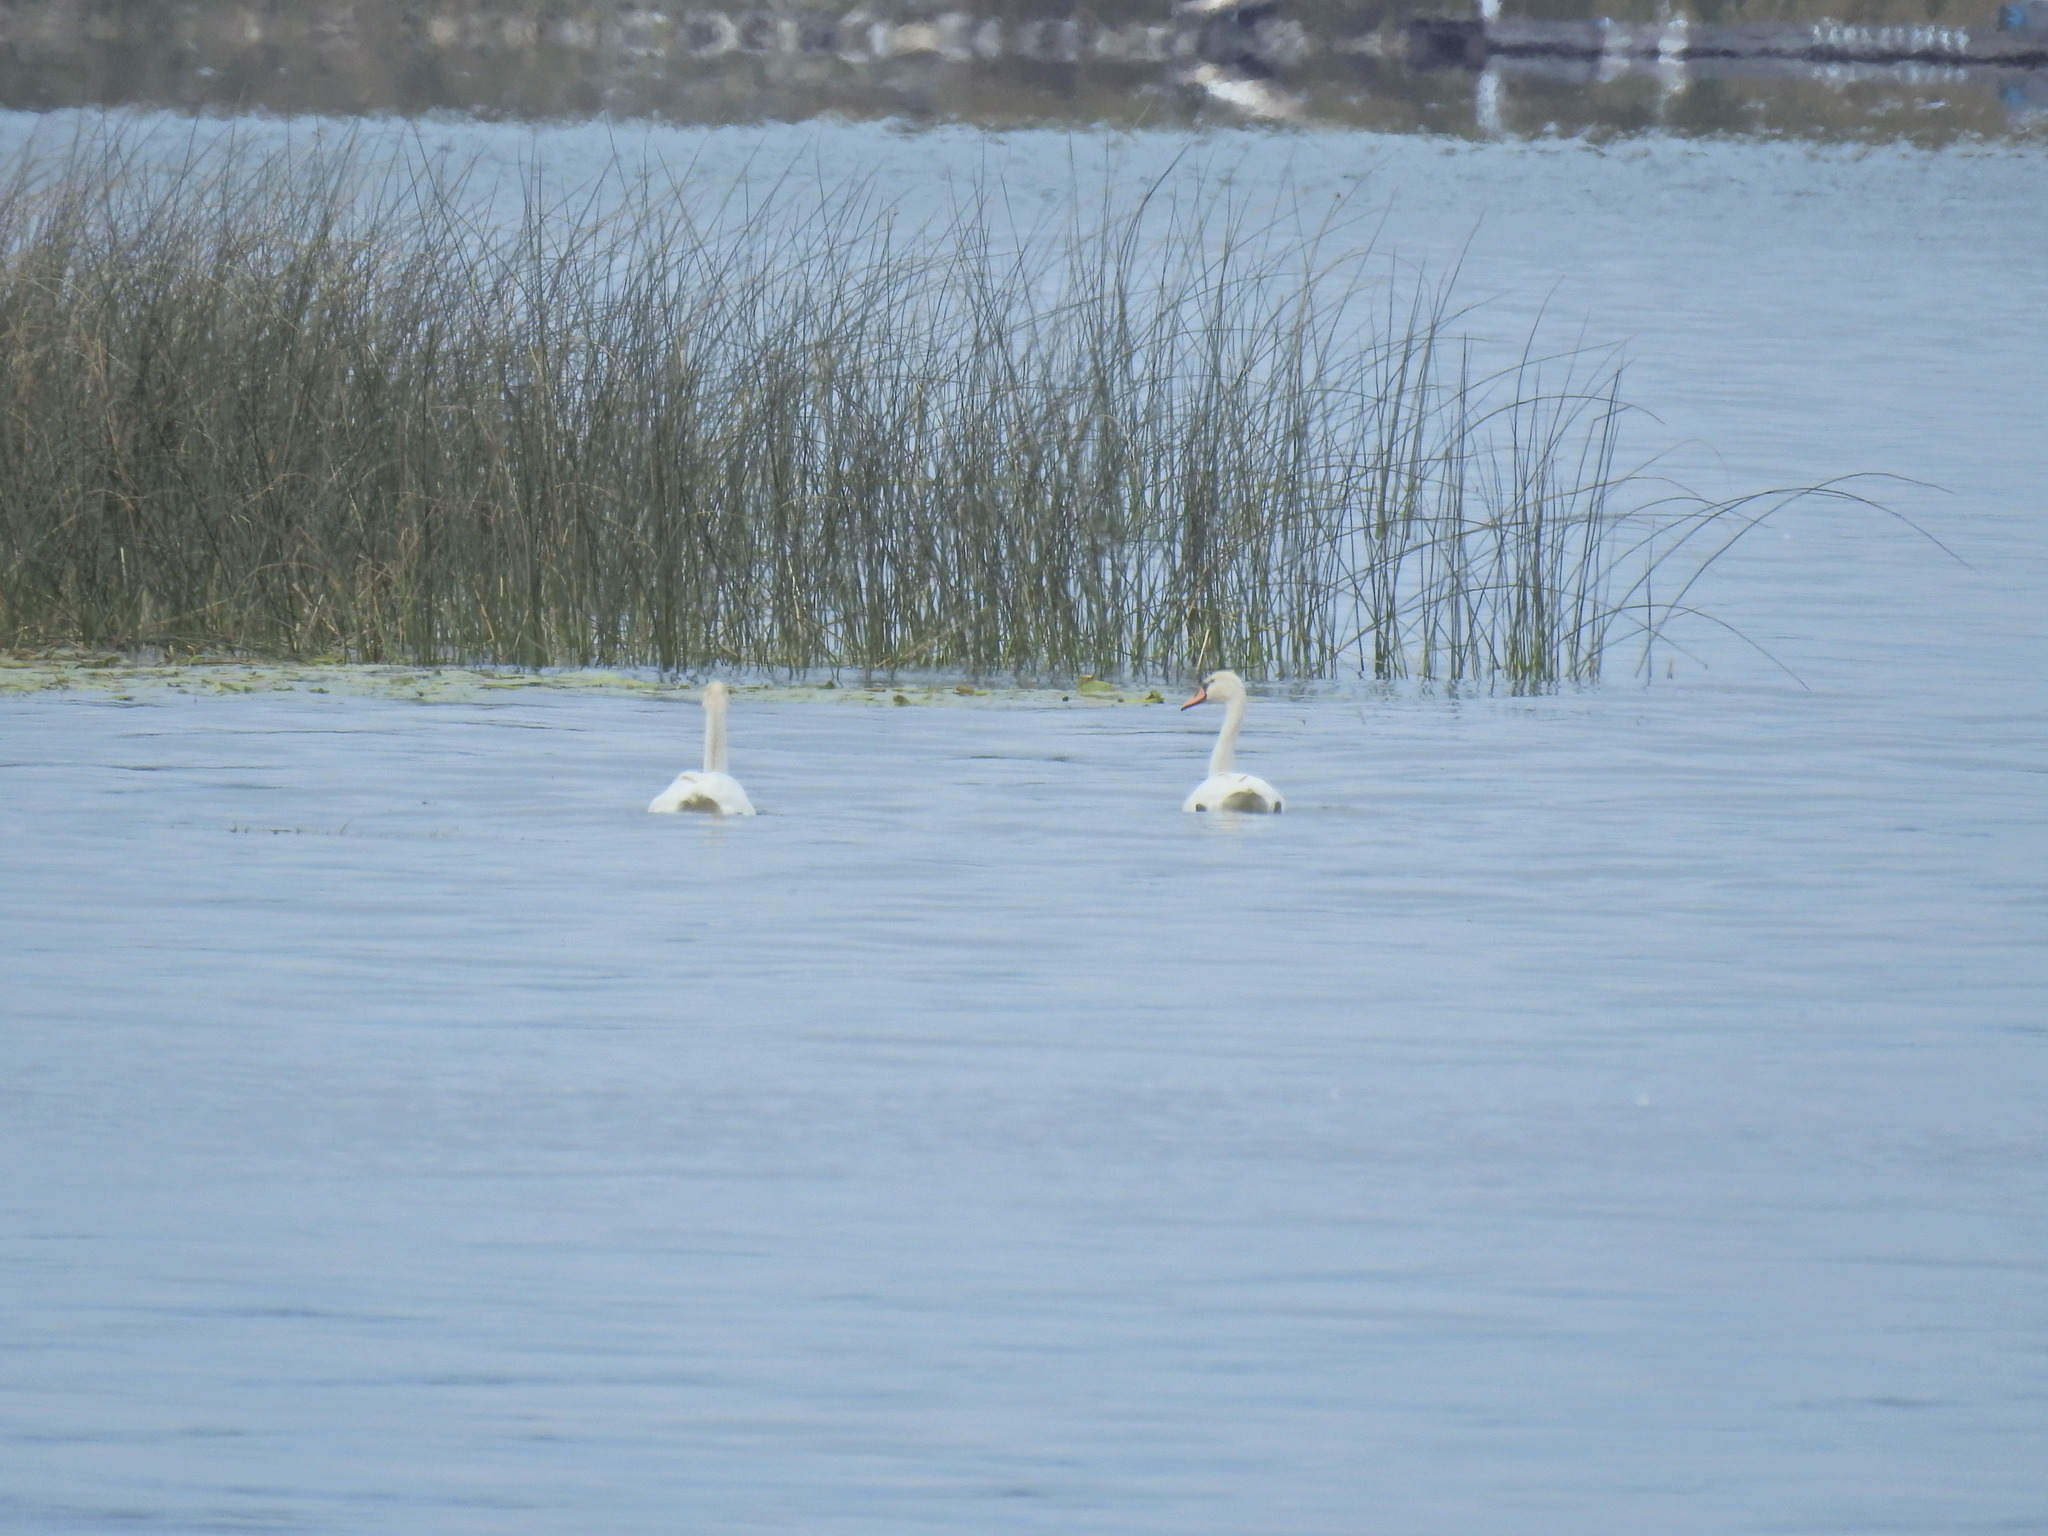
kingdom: Animalia
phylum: Chordata
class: Aves
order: Anseriformes
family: Anatidae
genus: Cygnus
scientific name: Cygnus olor
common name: Mute swan
